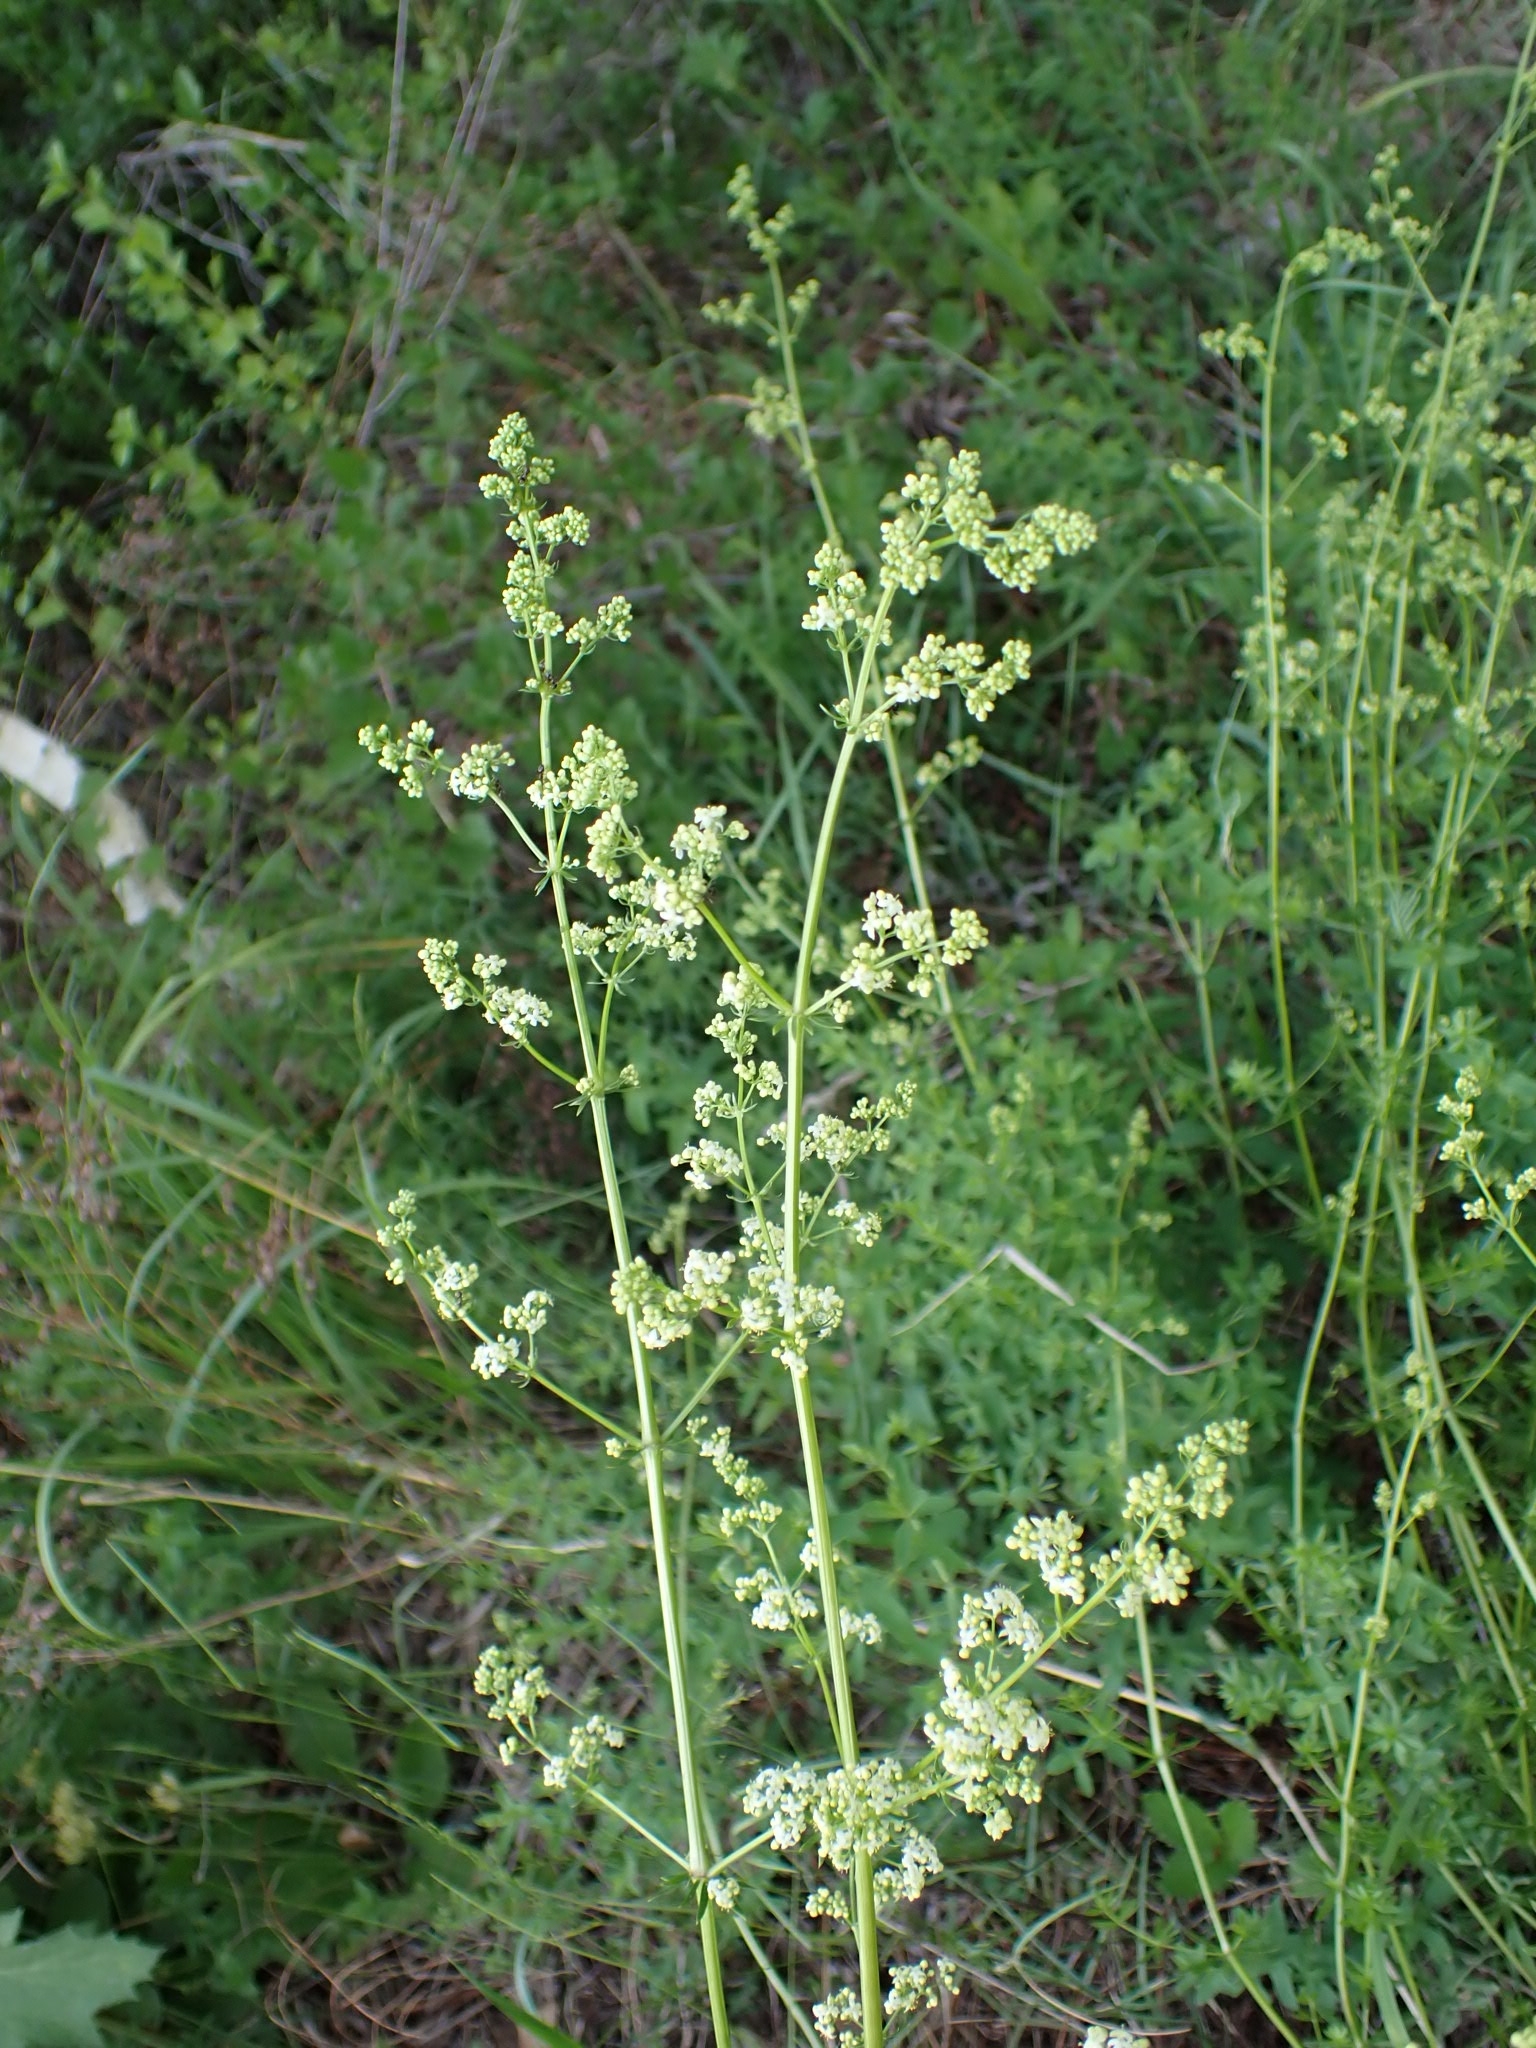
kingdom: Plantae
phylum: Tracheophyta
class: Magnoliopsida
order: Gentianales
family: Rubiaceae
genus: Galium
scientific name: Galium mollugo
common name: Hedge bedstraw
